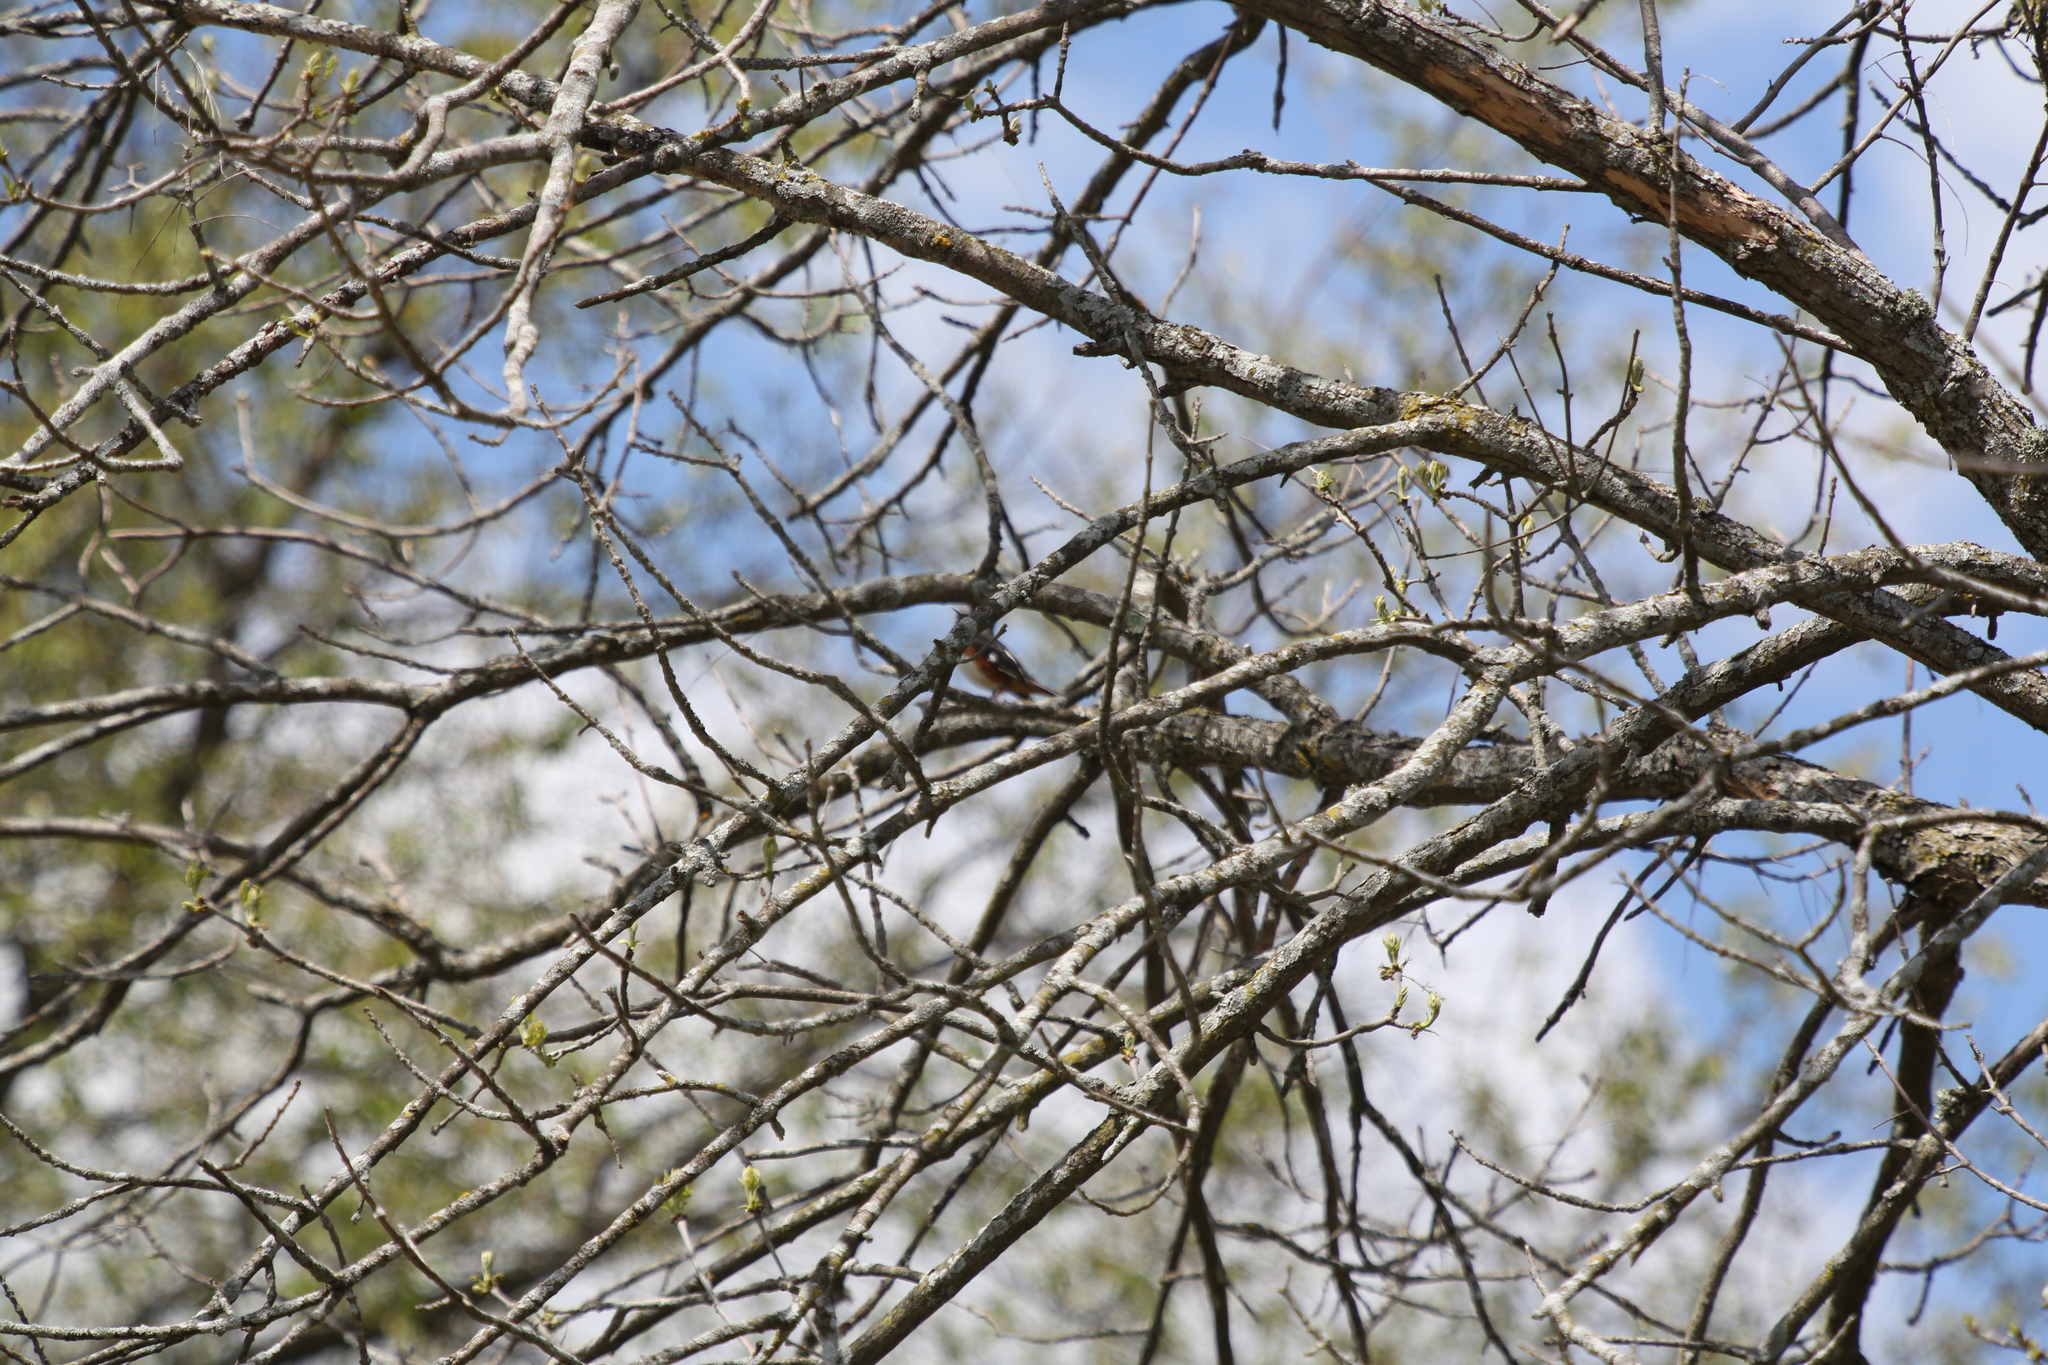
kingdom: Animalia
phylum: Chordata
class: Aves
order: Passeriformes
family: Passerellidae
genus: Pipilo
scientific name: Pipilo erythrophthalmus
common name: Eastern towhee
